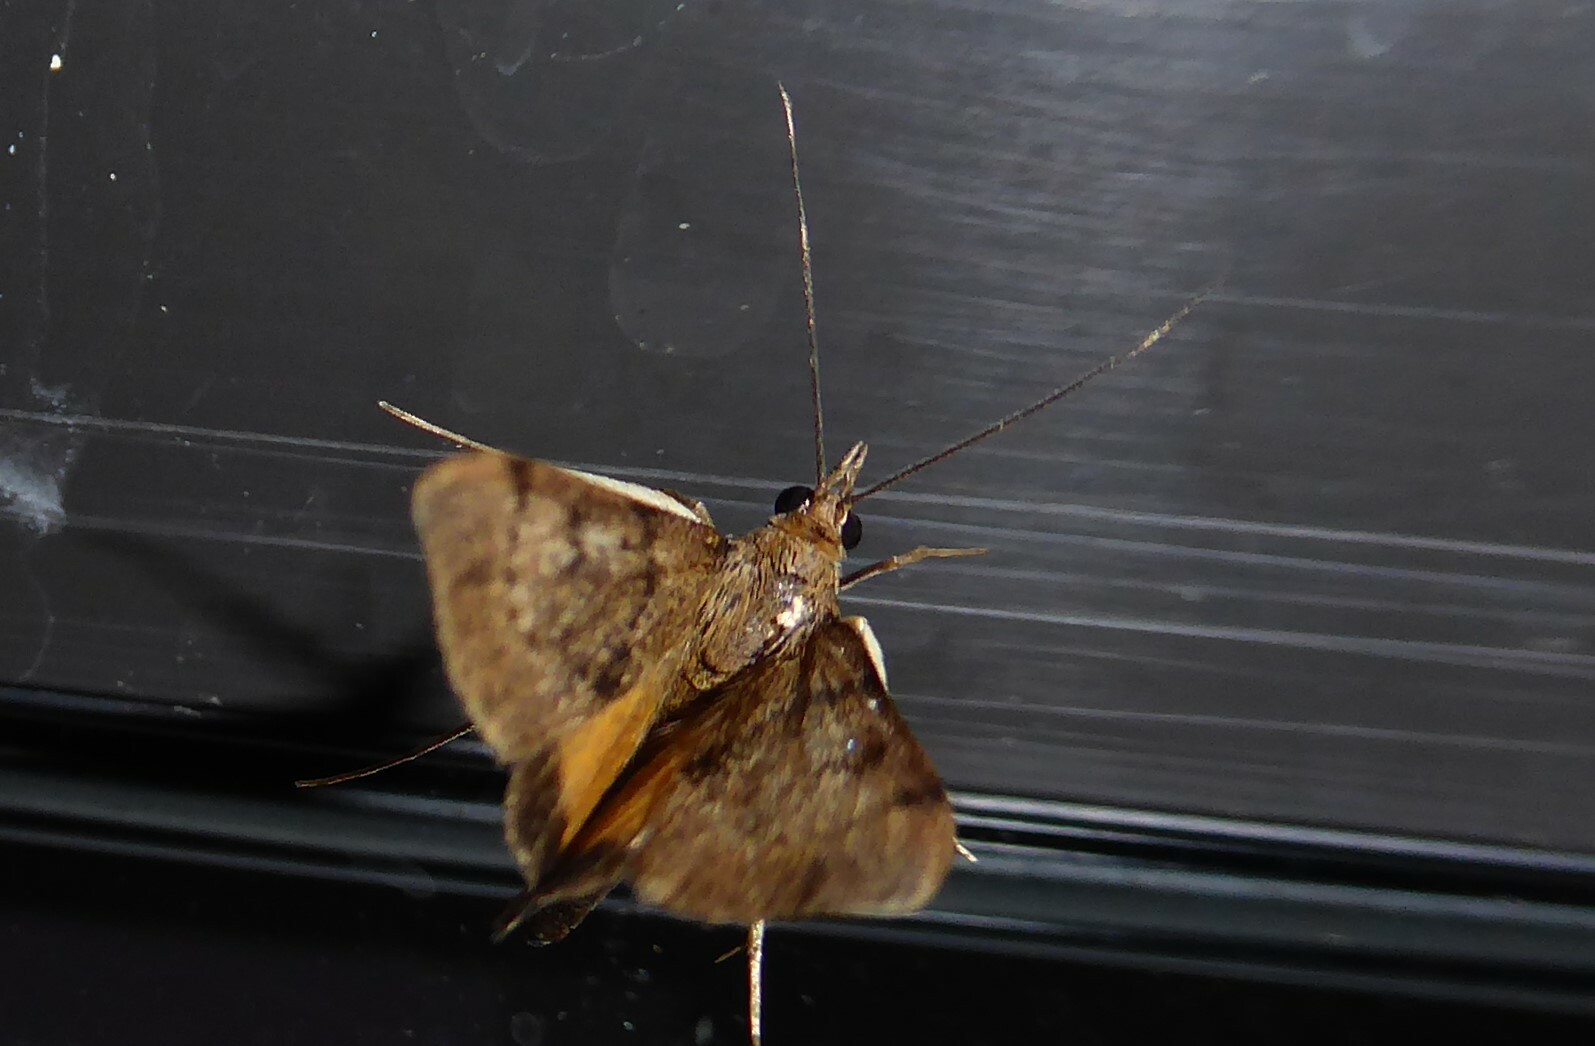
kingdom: Animalia
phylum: Arthropoda
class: Insecta
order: Lepidoptera
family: Crambidae
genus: Uresiphita
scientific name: Uresiphita
